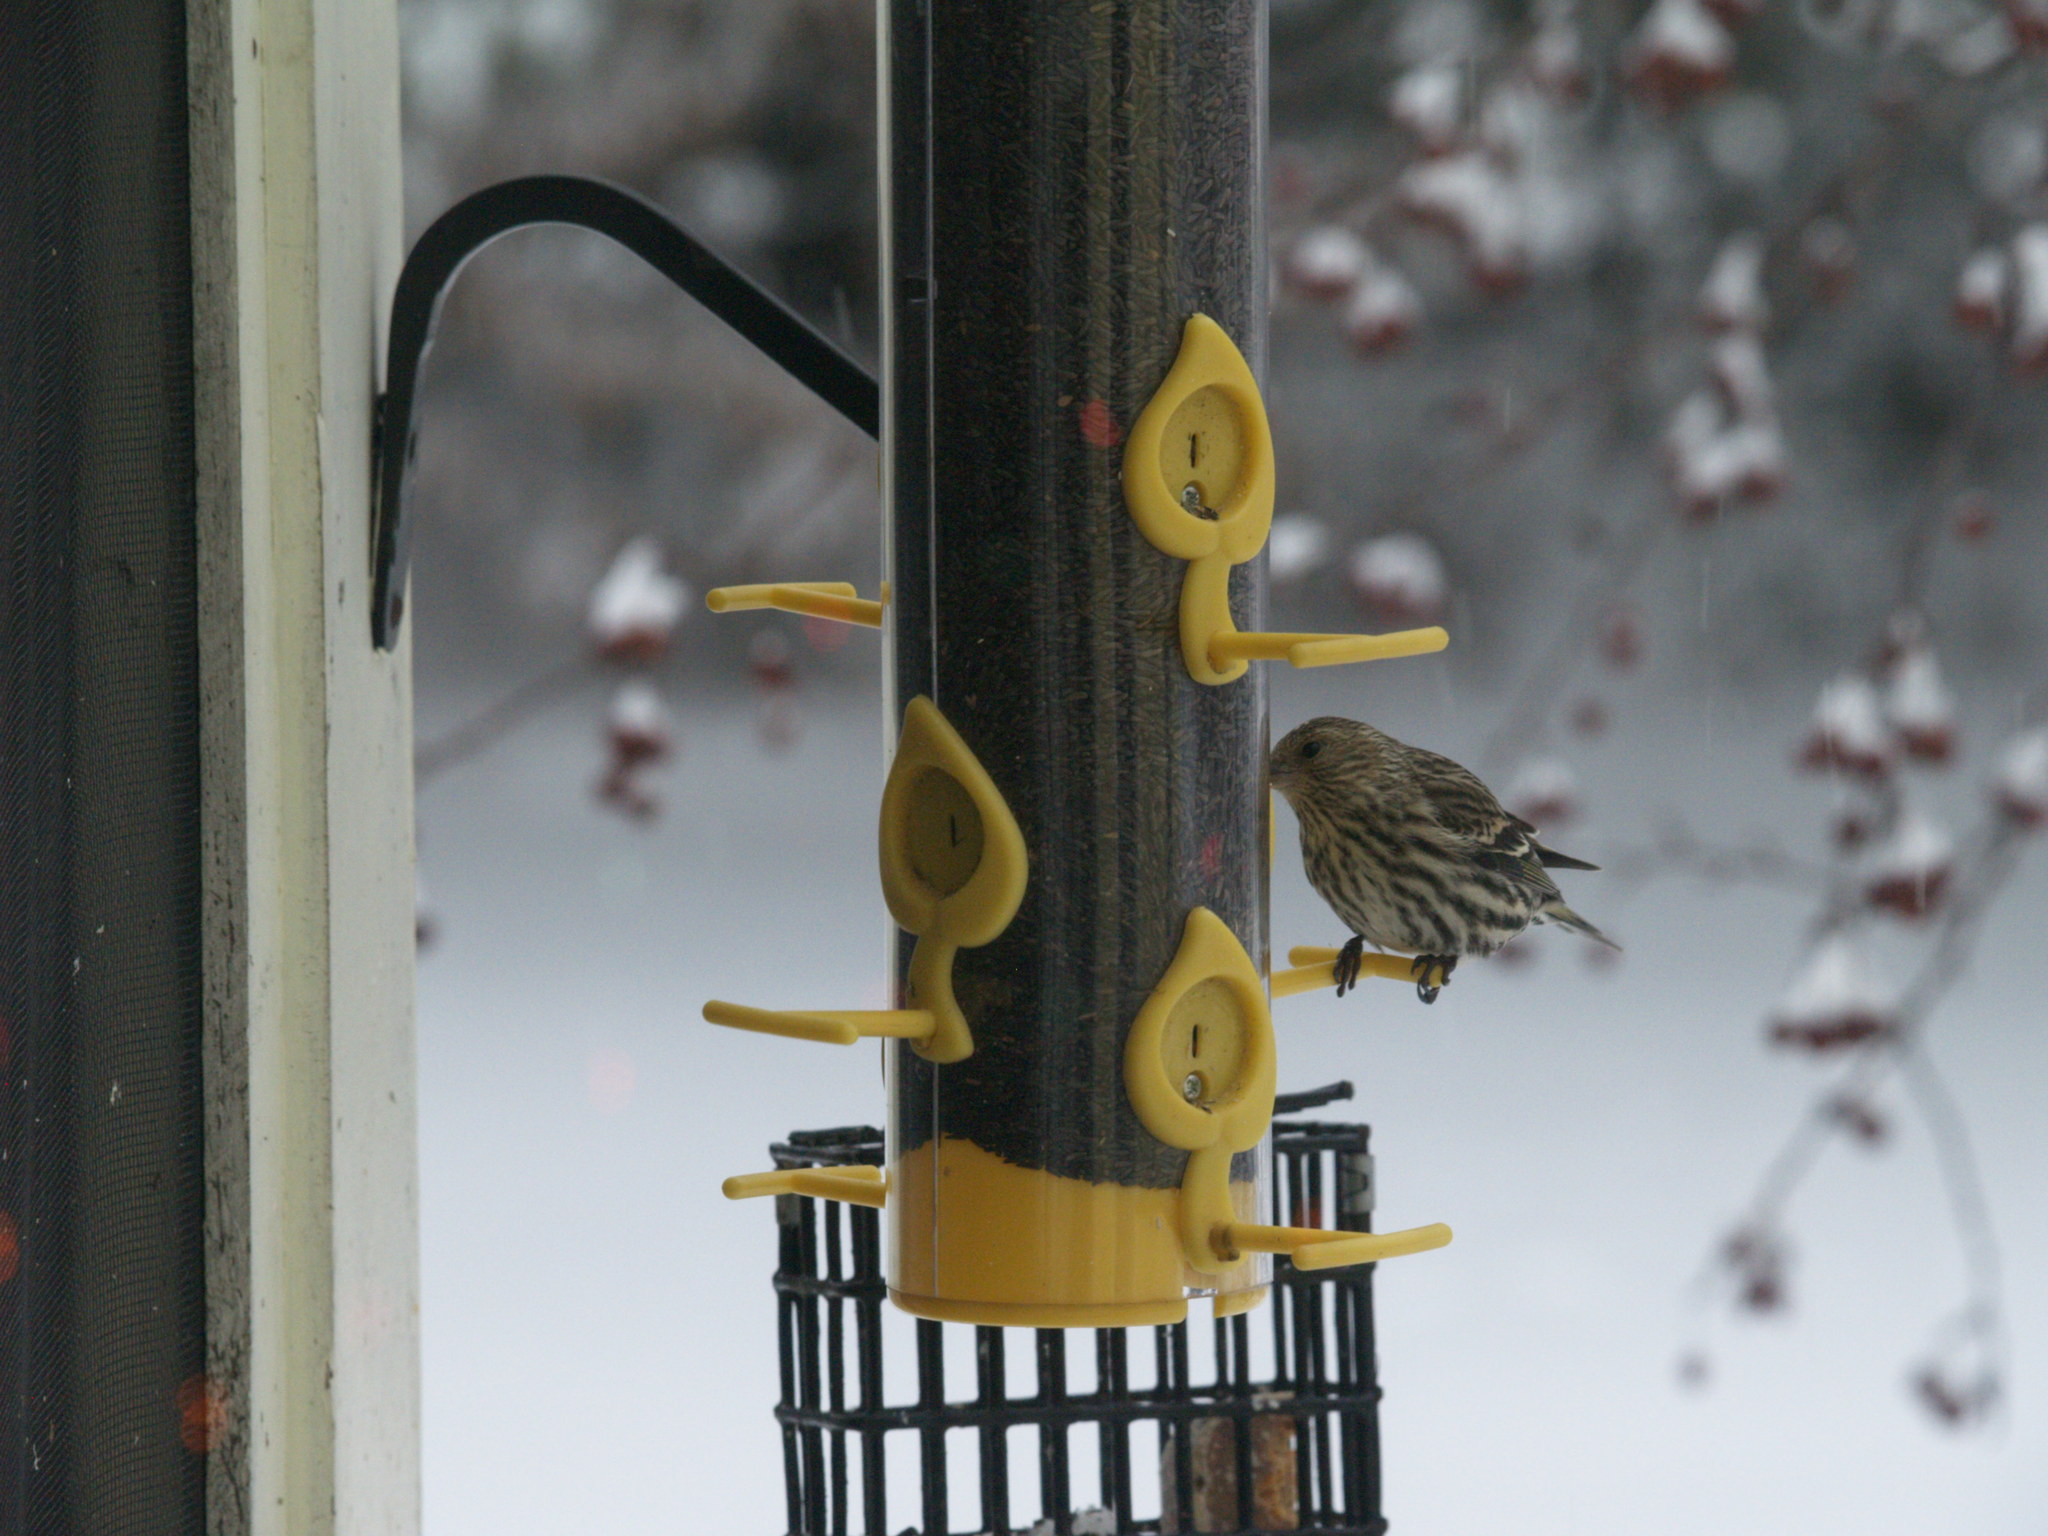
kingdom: Animalia
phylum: Chordata
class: Aves
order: Passeriformes
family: Fringillidae
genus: Spinus
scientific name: Spinus pinus
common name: Pine siskin
